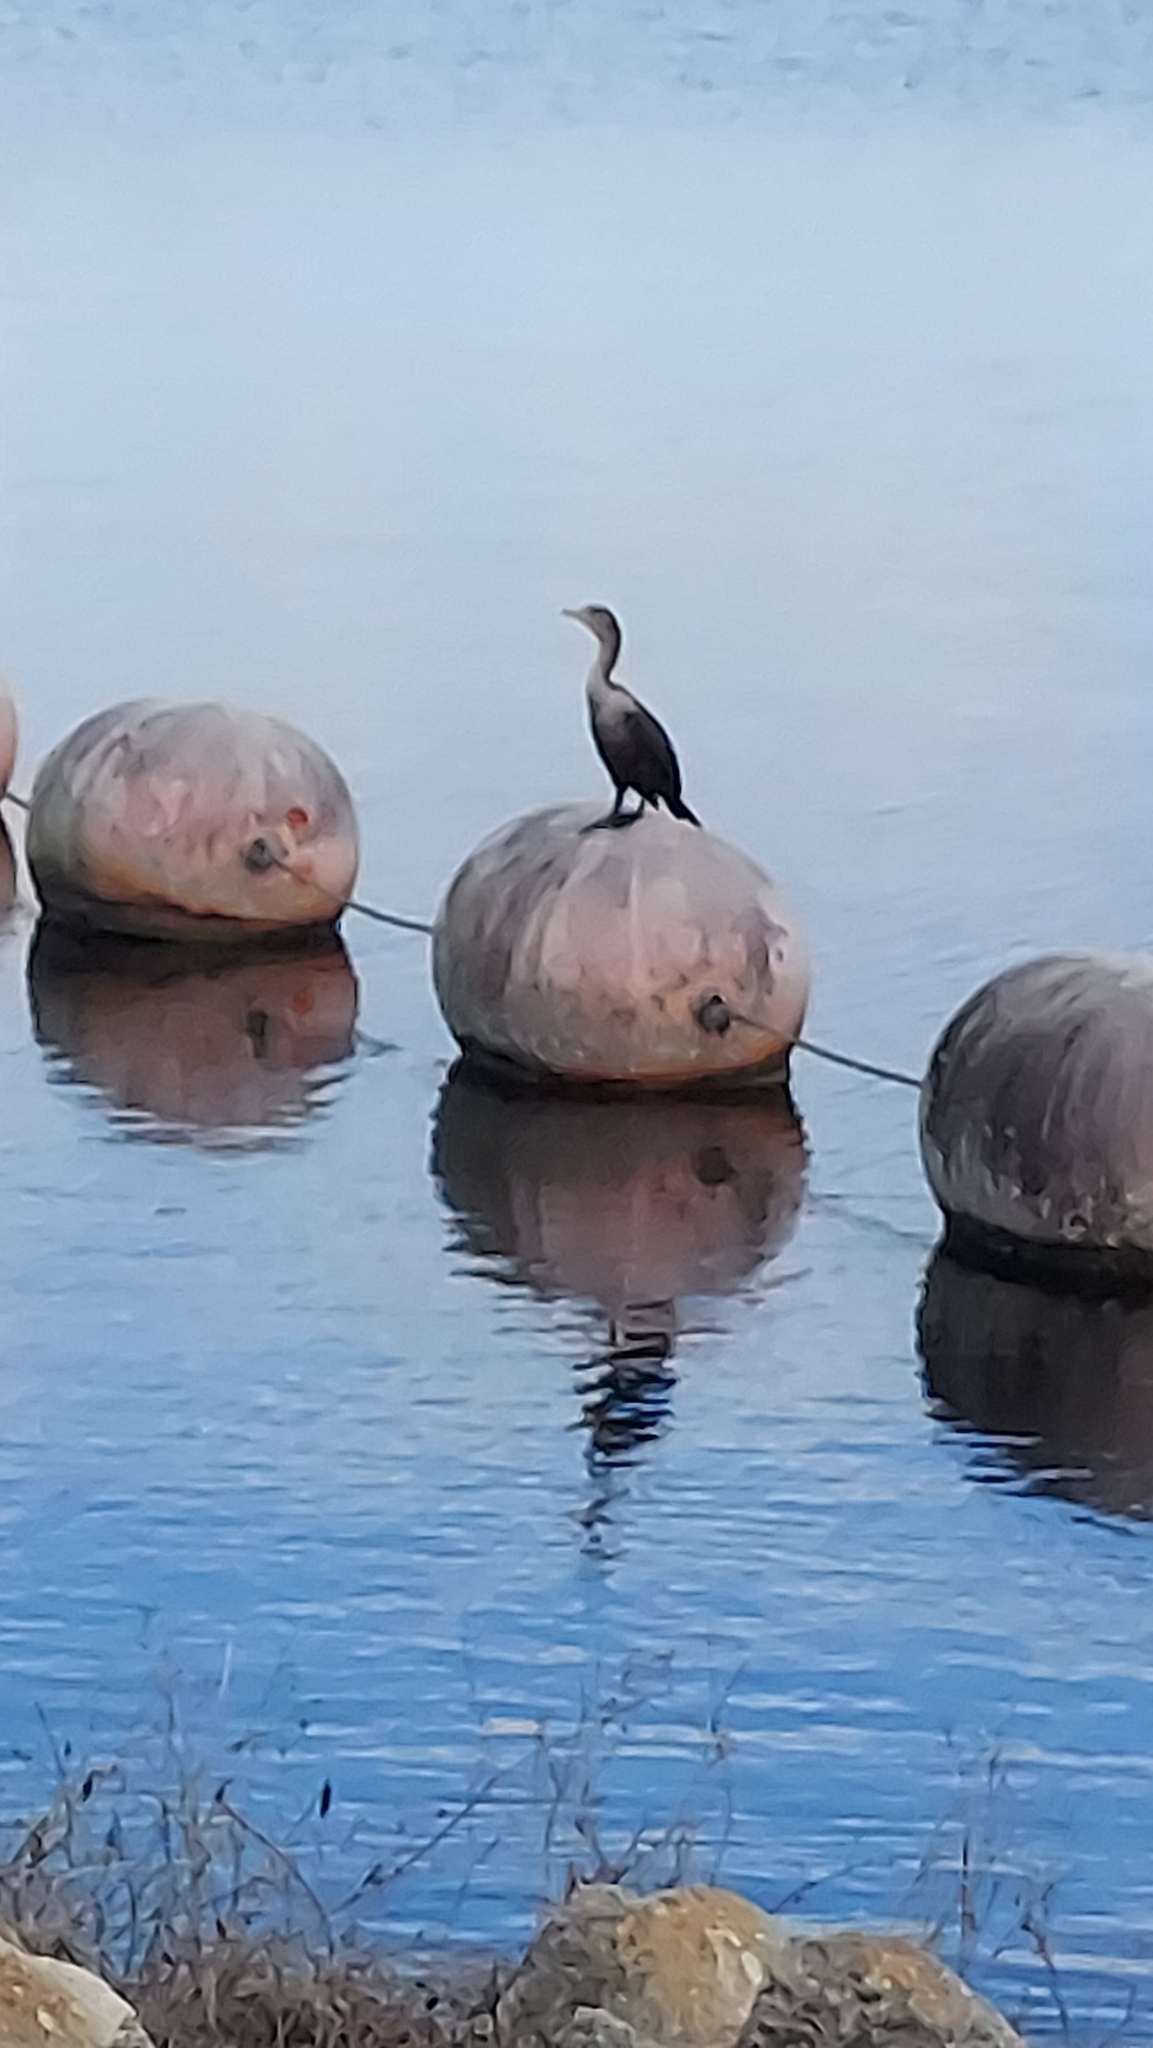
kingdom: Animalia
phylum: Chordata
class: Aves
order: Suliformes
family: Phalacrocoracidae
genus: Phalacrocorax
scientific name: Phalacrocorax auritus
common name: Double-crested cormorant
